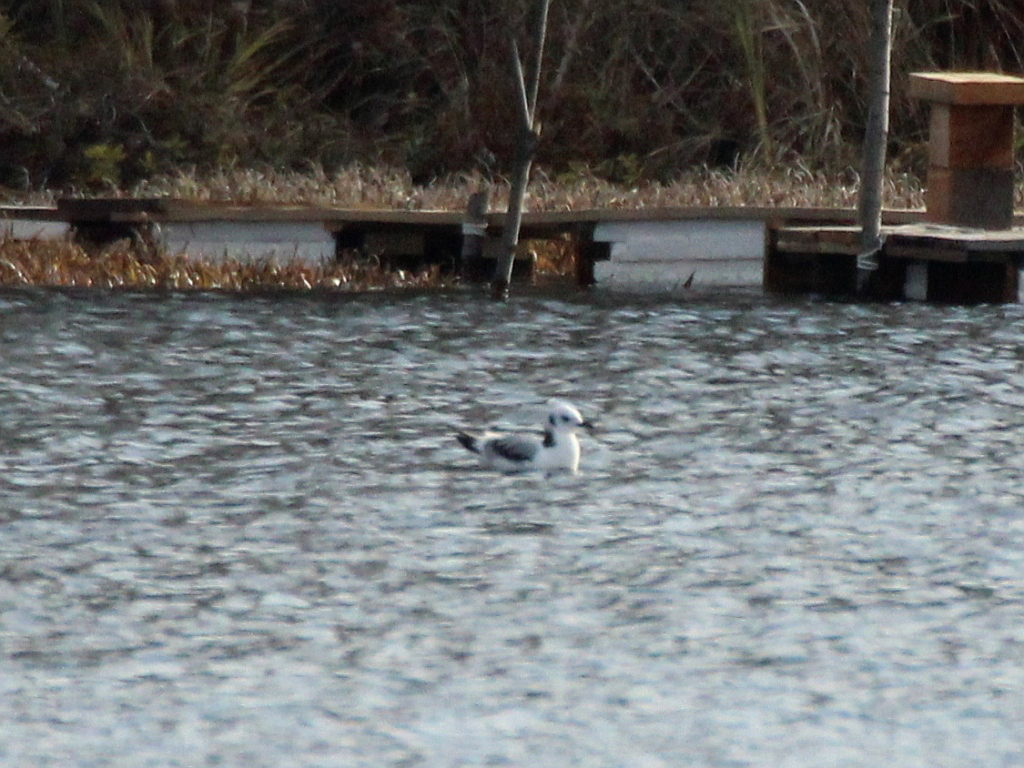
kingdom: Animalia
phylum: Chordata
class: Aves
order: Charadriiformes
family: Laridae
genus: Rissa
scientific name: Rissa tridactyla
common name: Black-legged kittiwake
